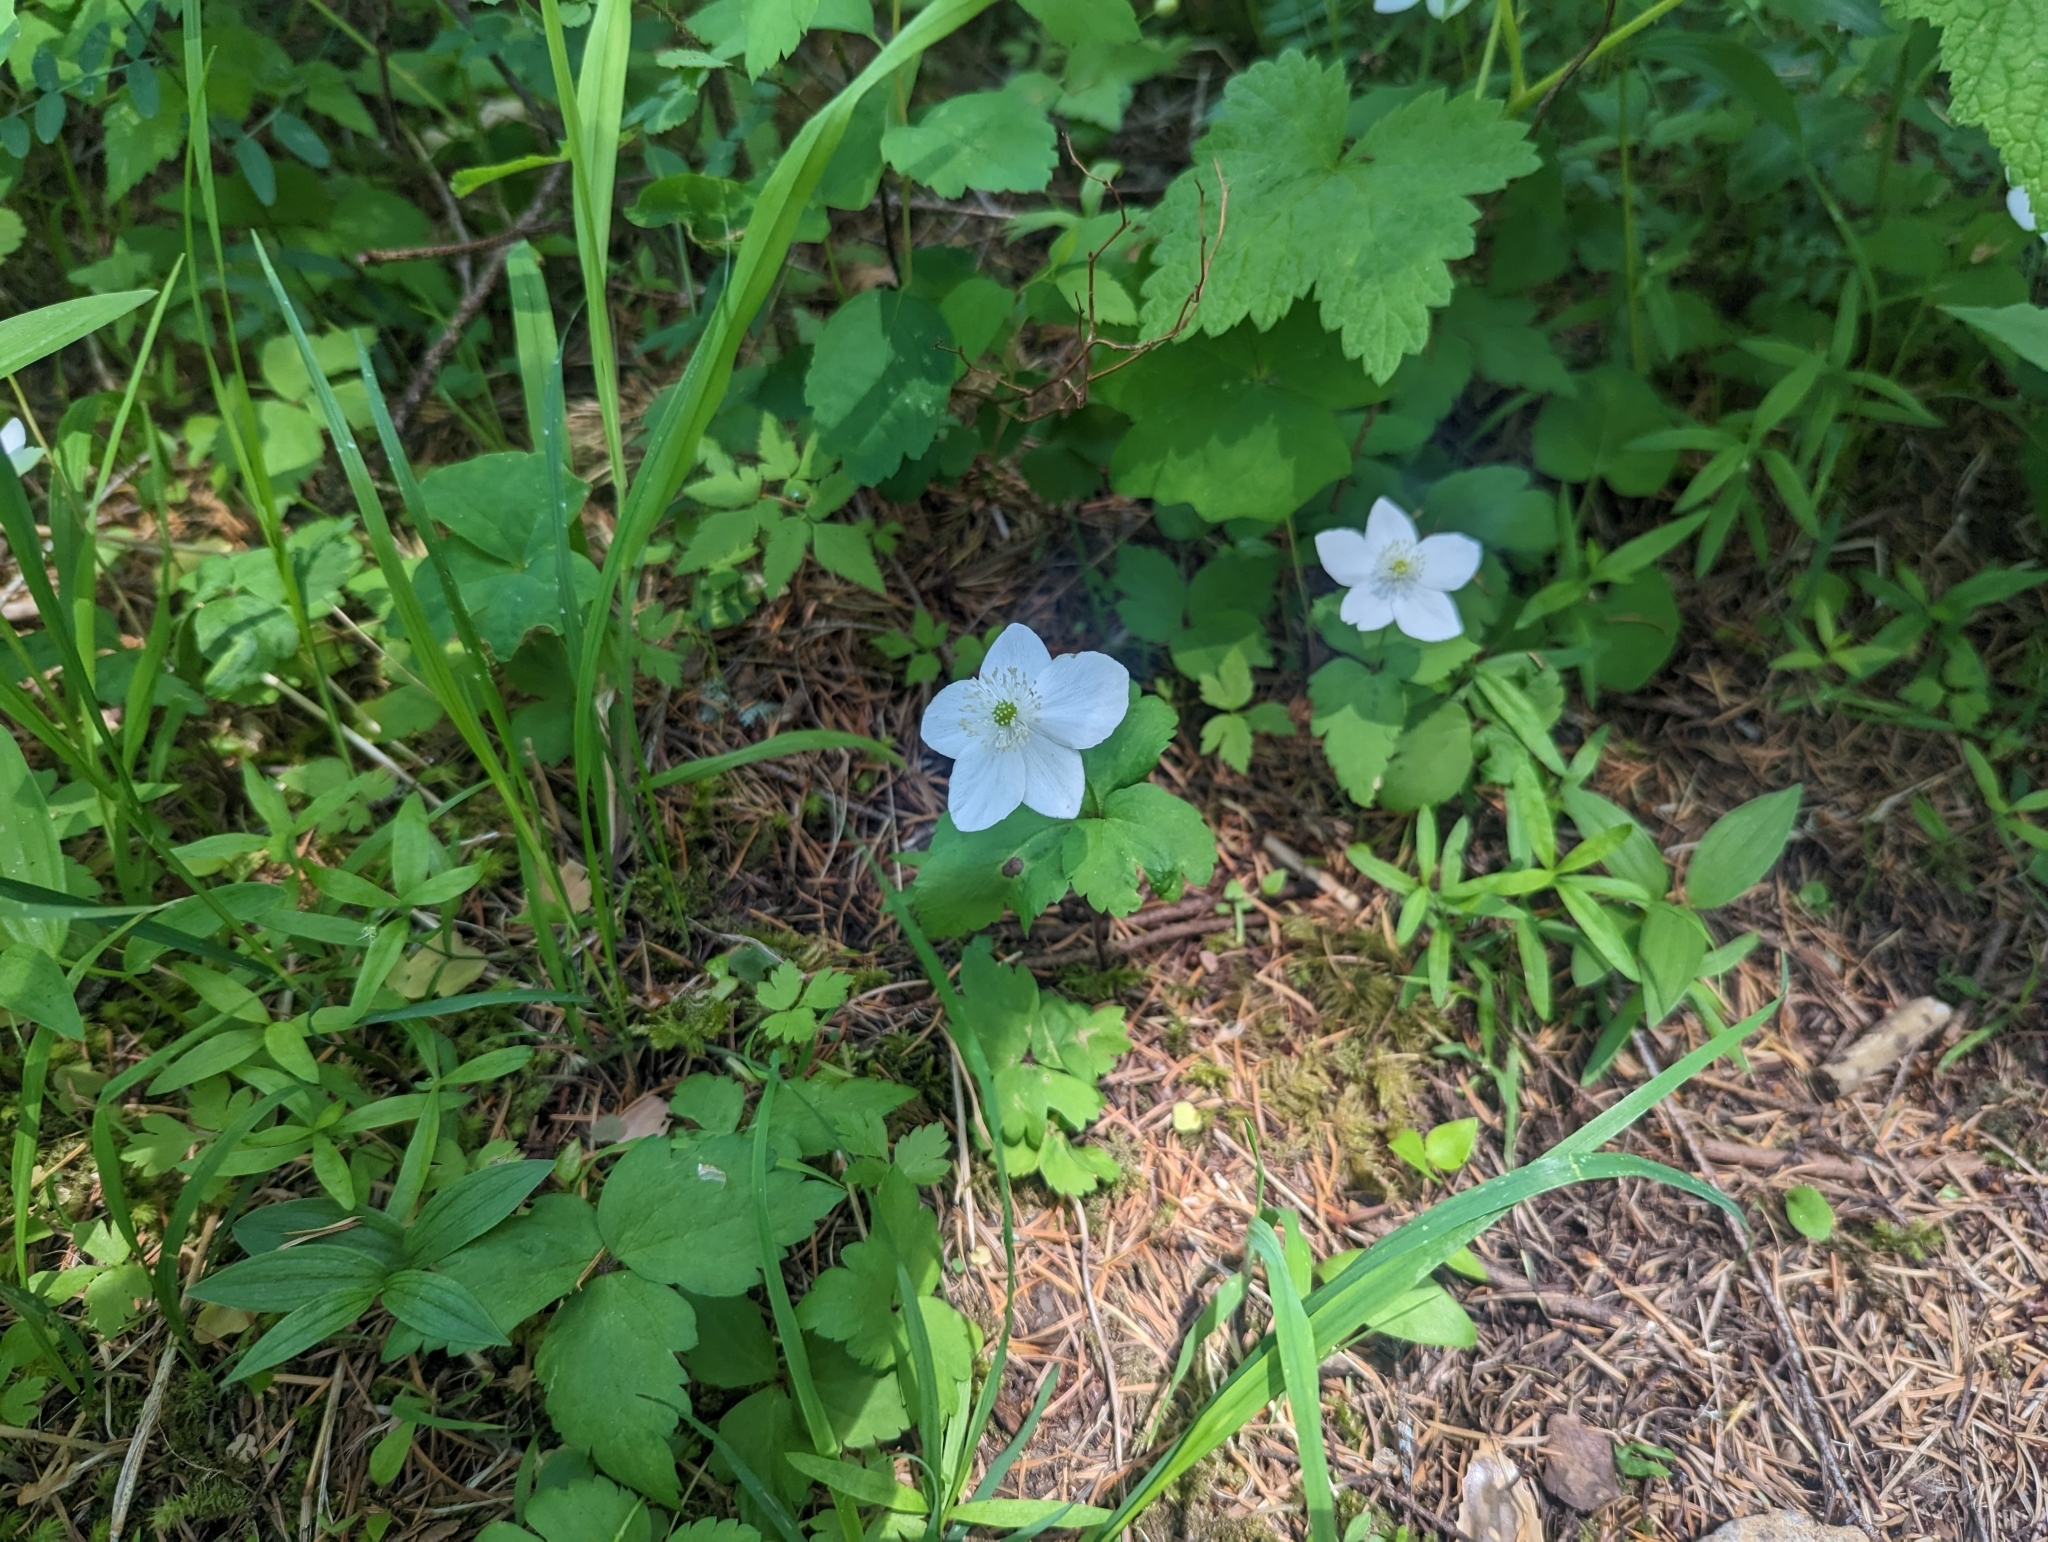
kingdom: Plantae
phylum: Tracheophyta
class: Magnoliopsida
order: Ranunculales
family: Ranunculaceae
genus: Anemonastrum
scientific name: Anemonastrum deltoideum
